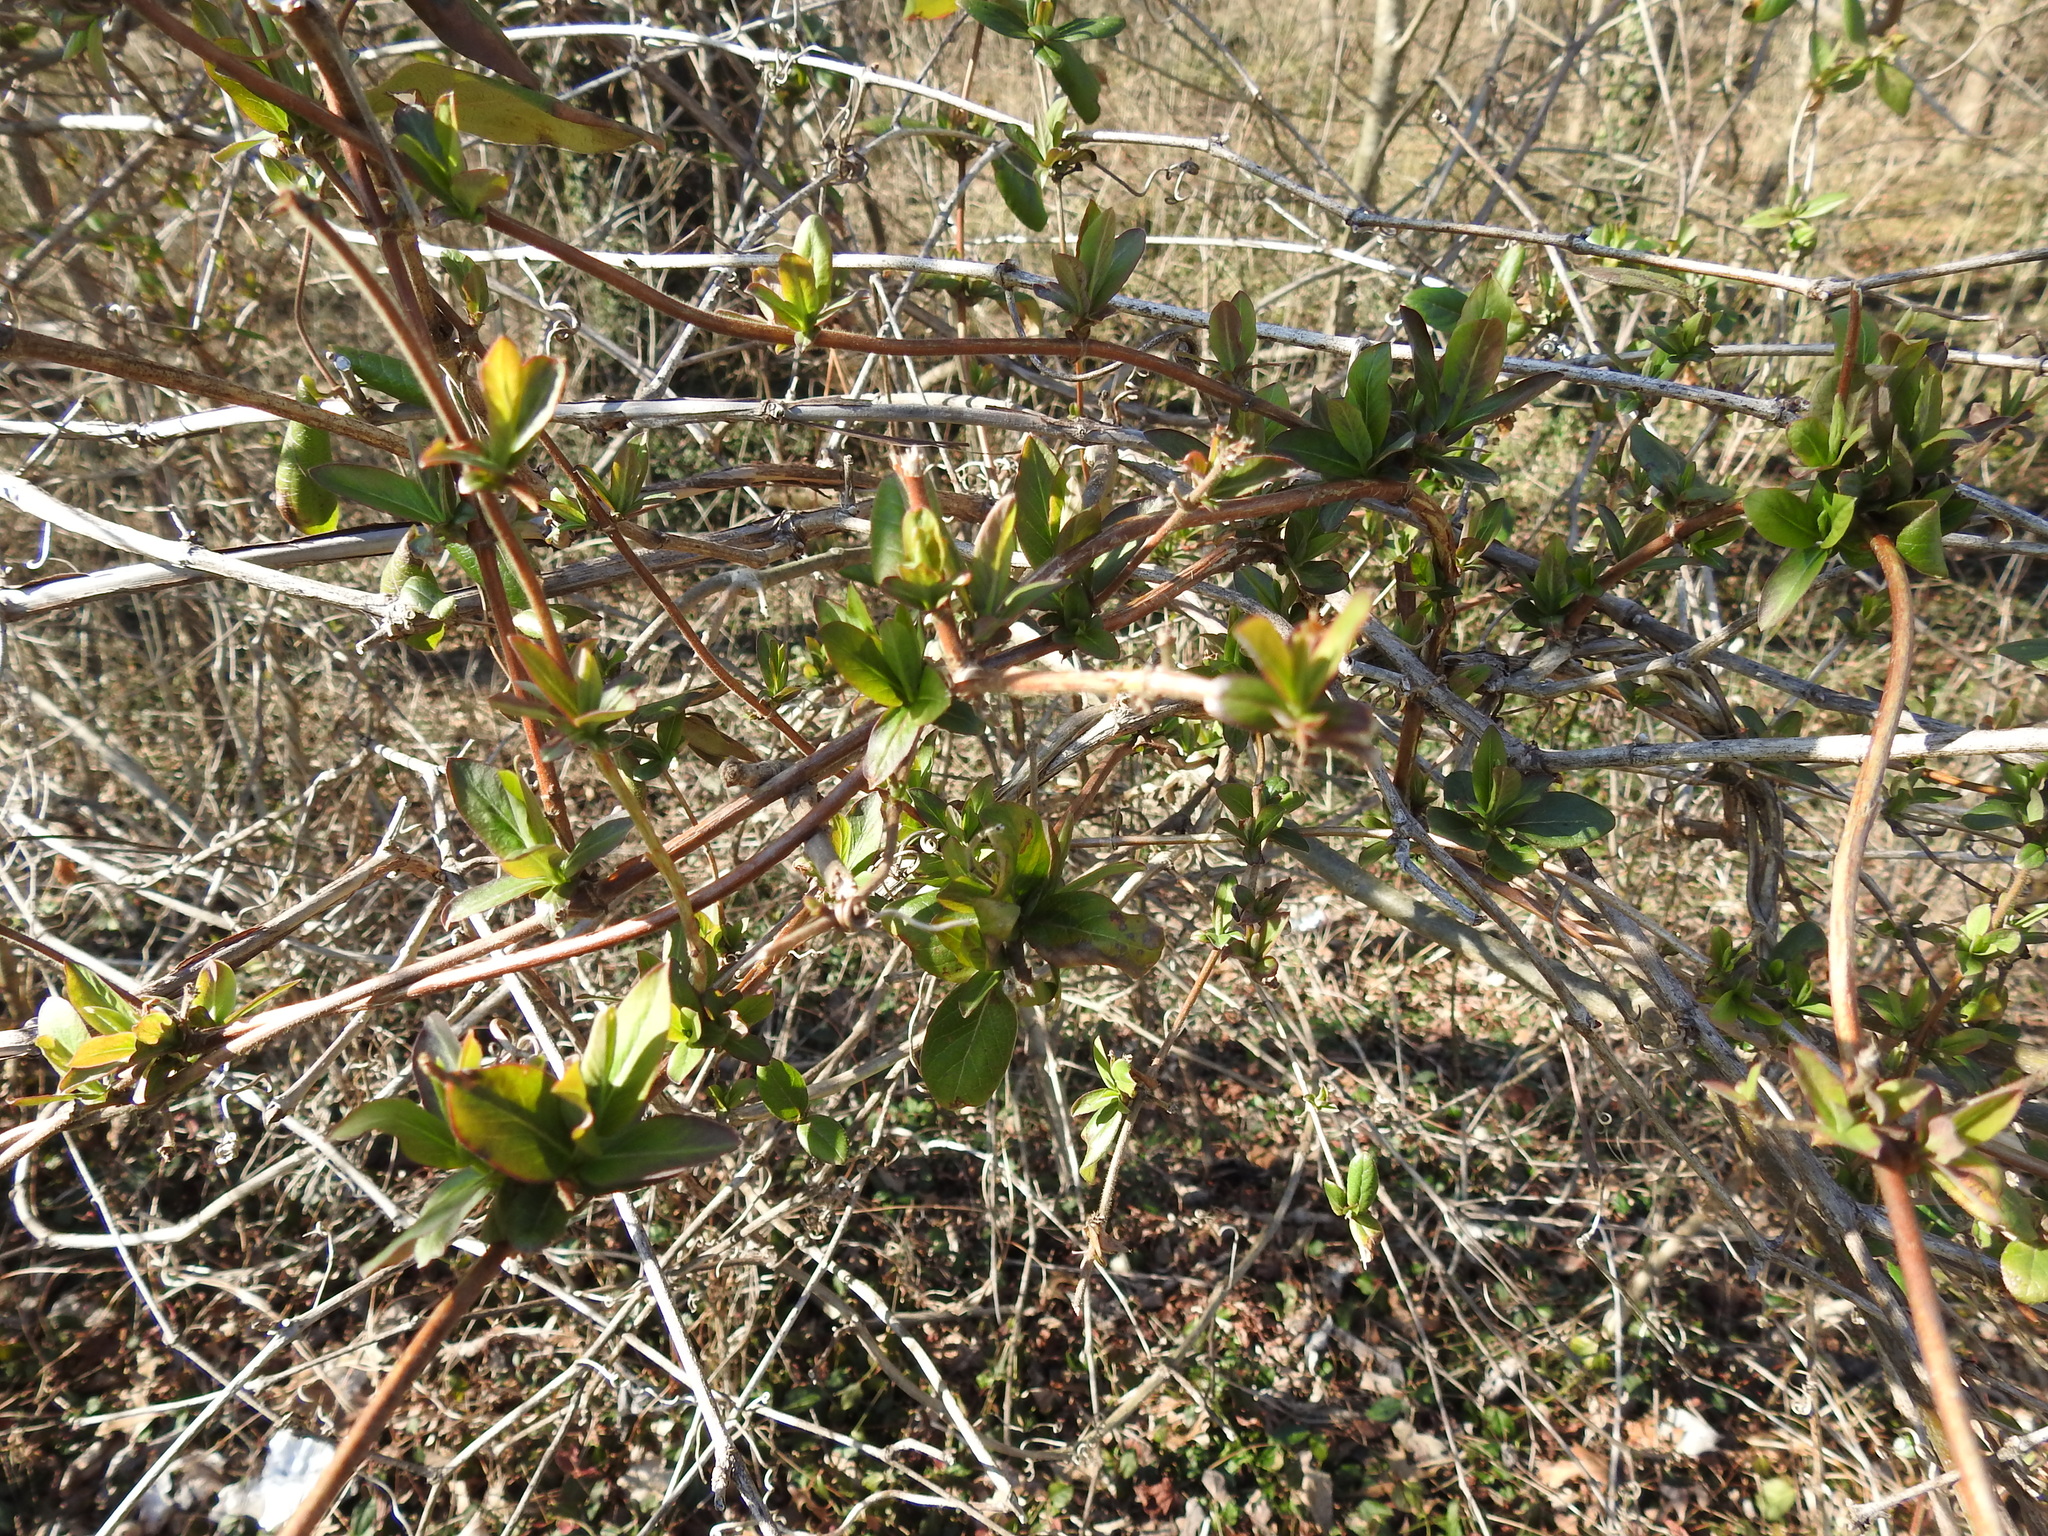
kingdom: Plantae
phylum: Tracheophyta
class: Magnoliopsida
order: Dipsacales
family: Caprifoliaceae
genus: Lonicera
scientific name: Lonicera maackii
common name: Amur honeysuckle
